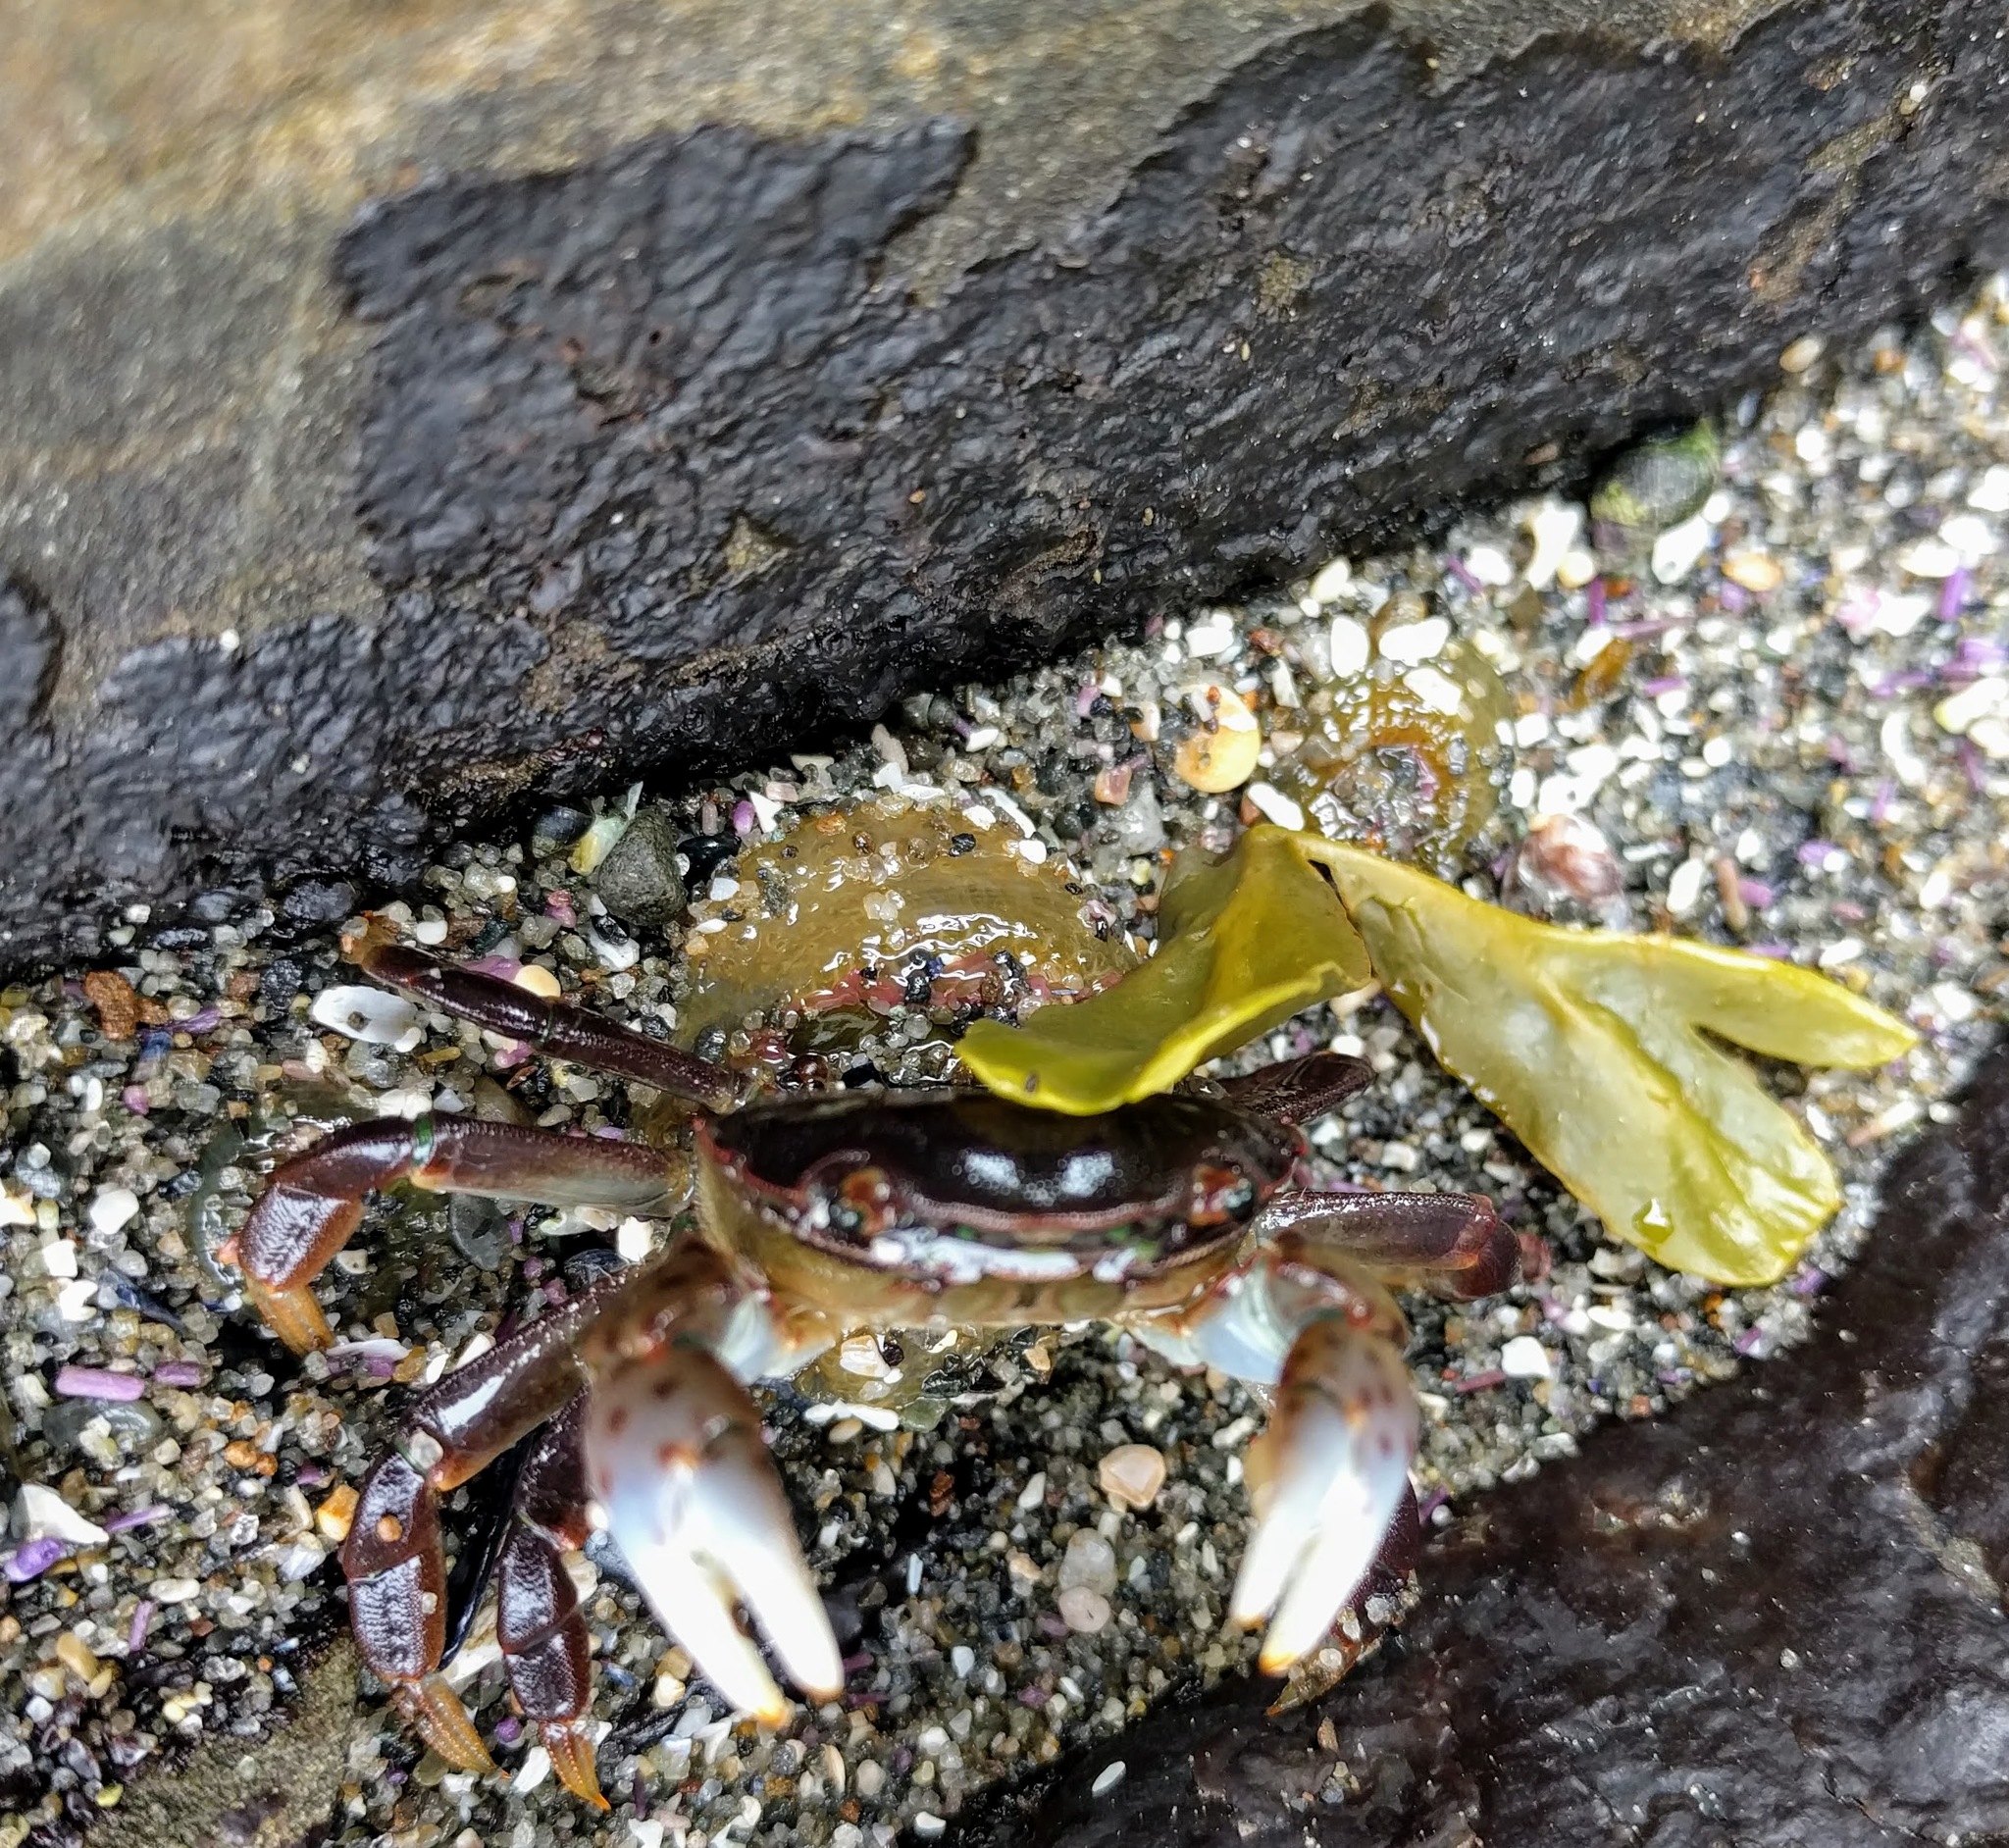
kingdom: Animalia
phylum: Arthropoda
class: Malacostraca
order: Decapoda
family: Varunidae
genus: Hemigrapsus
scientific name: Hemigrapsus nudus
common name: Purple shore crab
